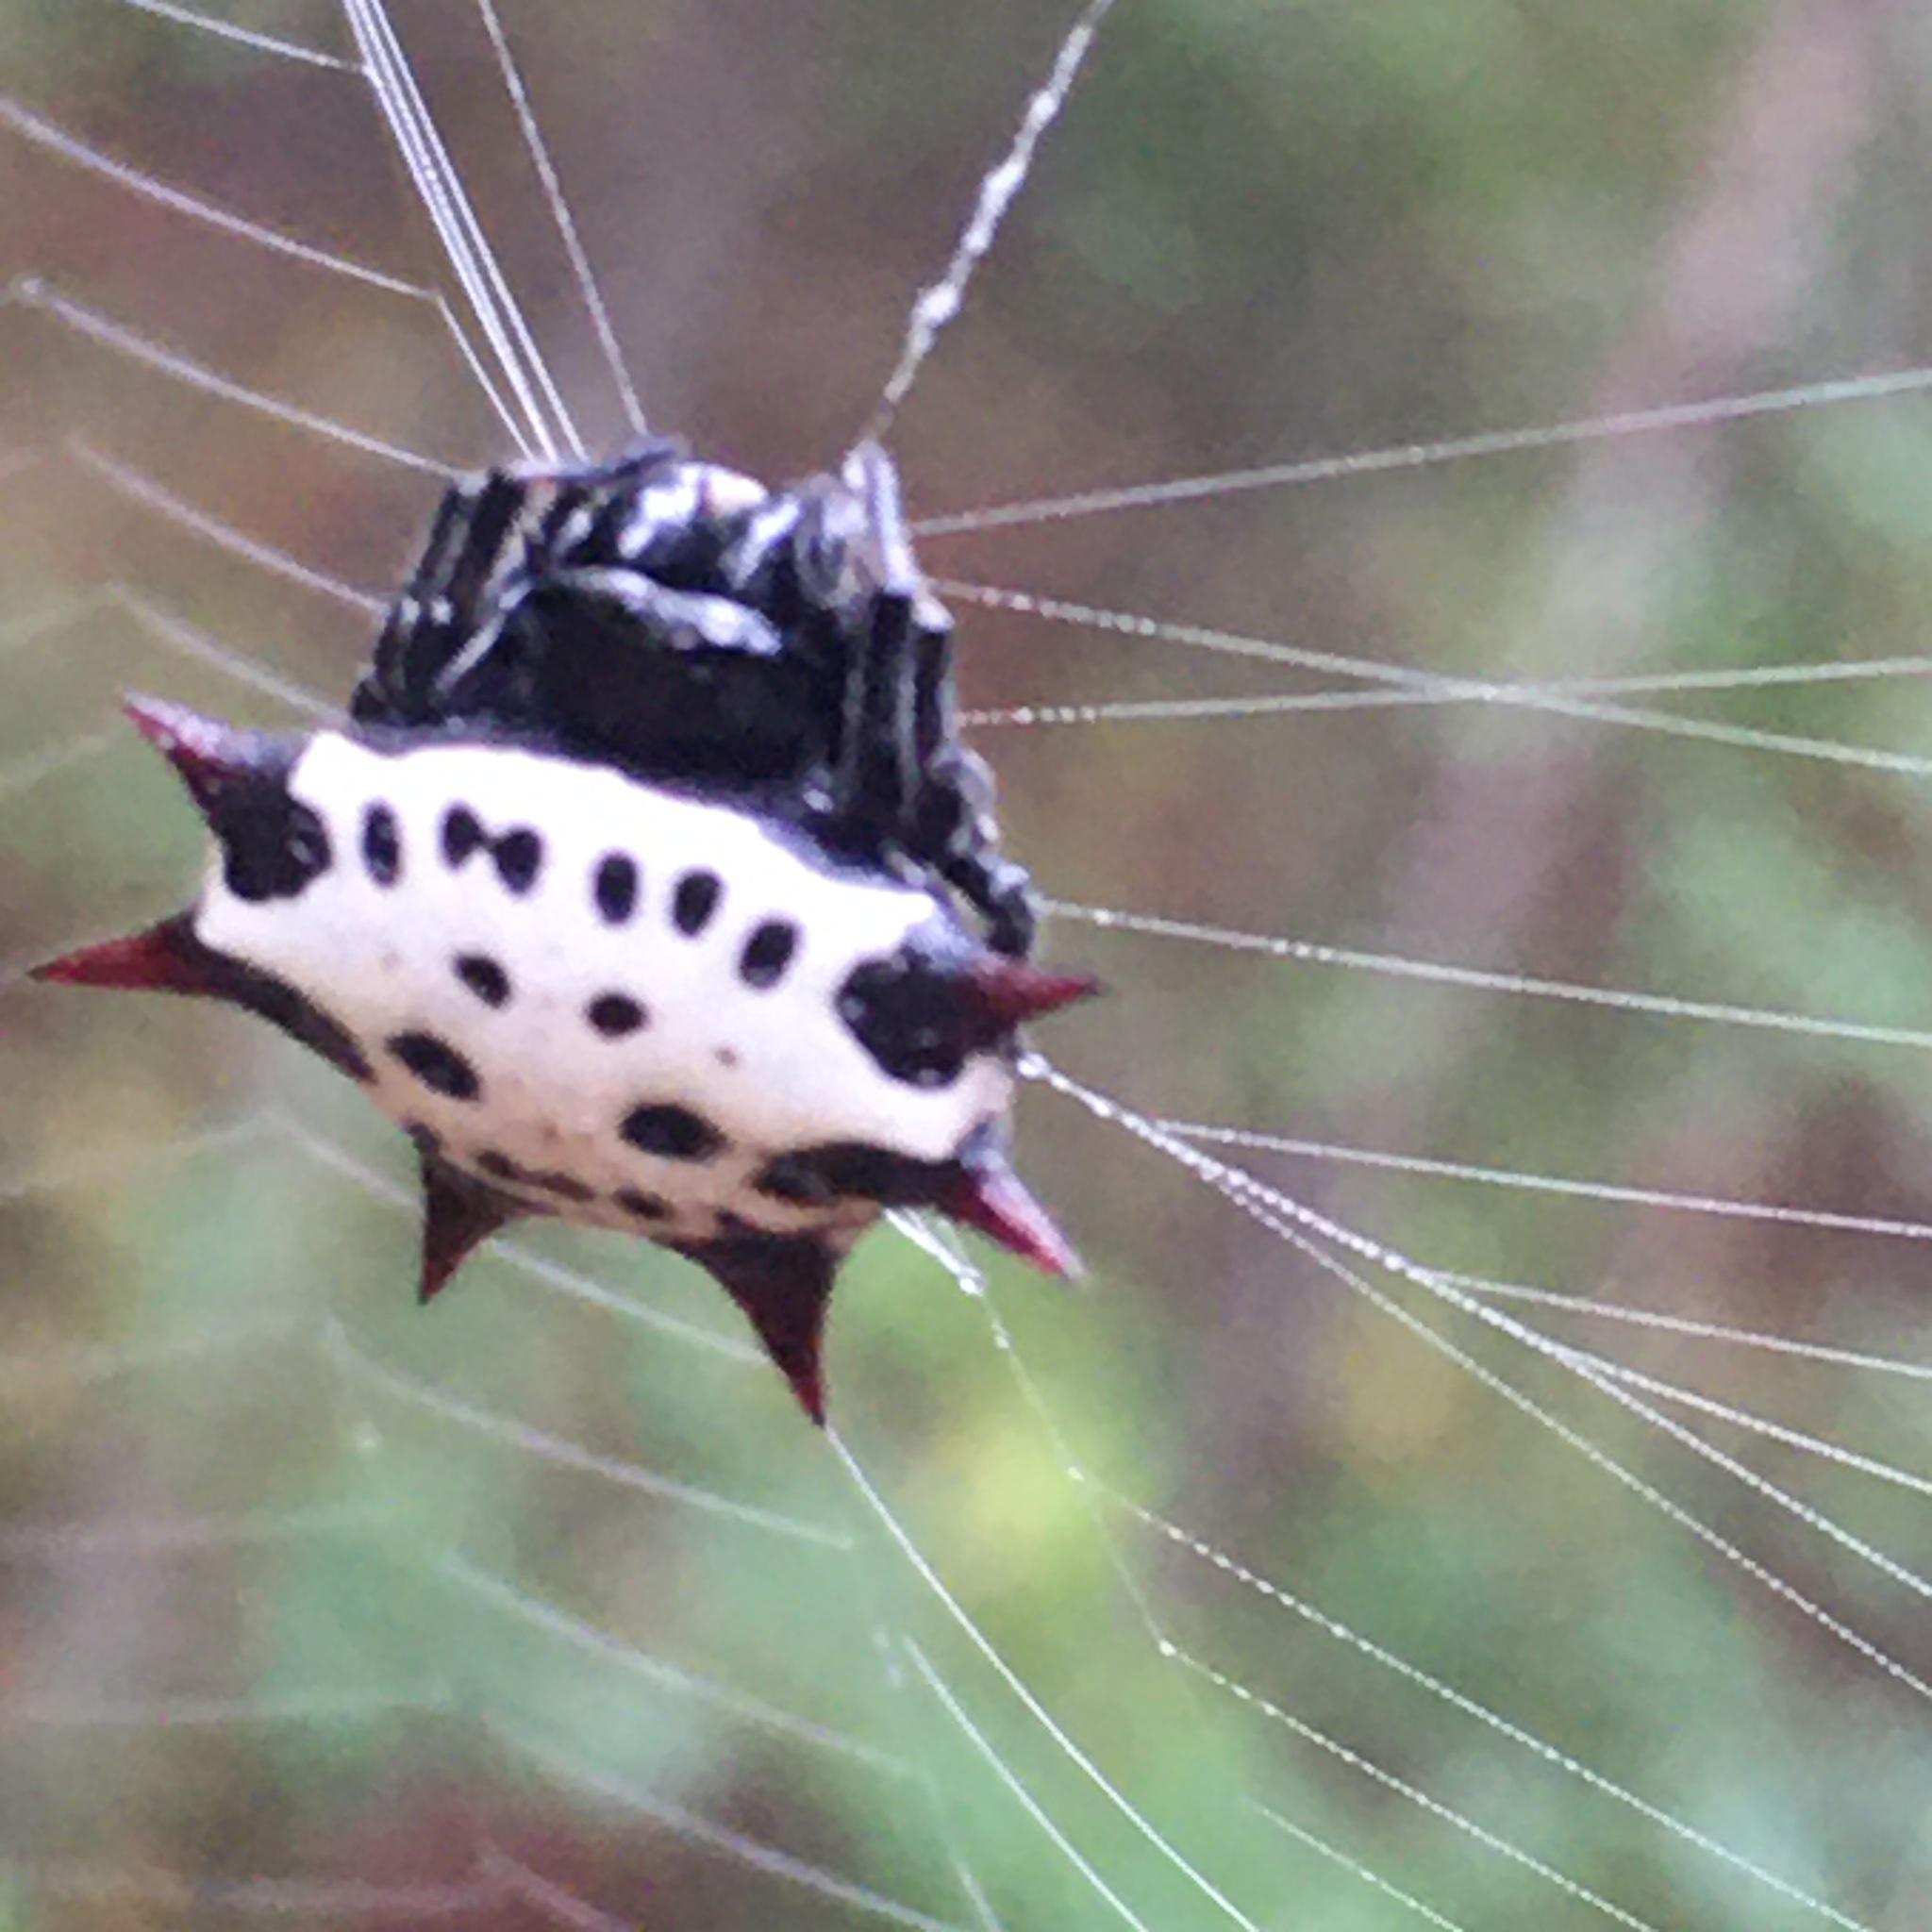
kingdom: Animalia
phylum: Arthropoda
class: Arachnida
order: Araneae
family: Araneidae
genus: Gasteracantha
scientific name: Gasteracantha cancriformis
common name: Orb weavers
